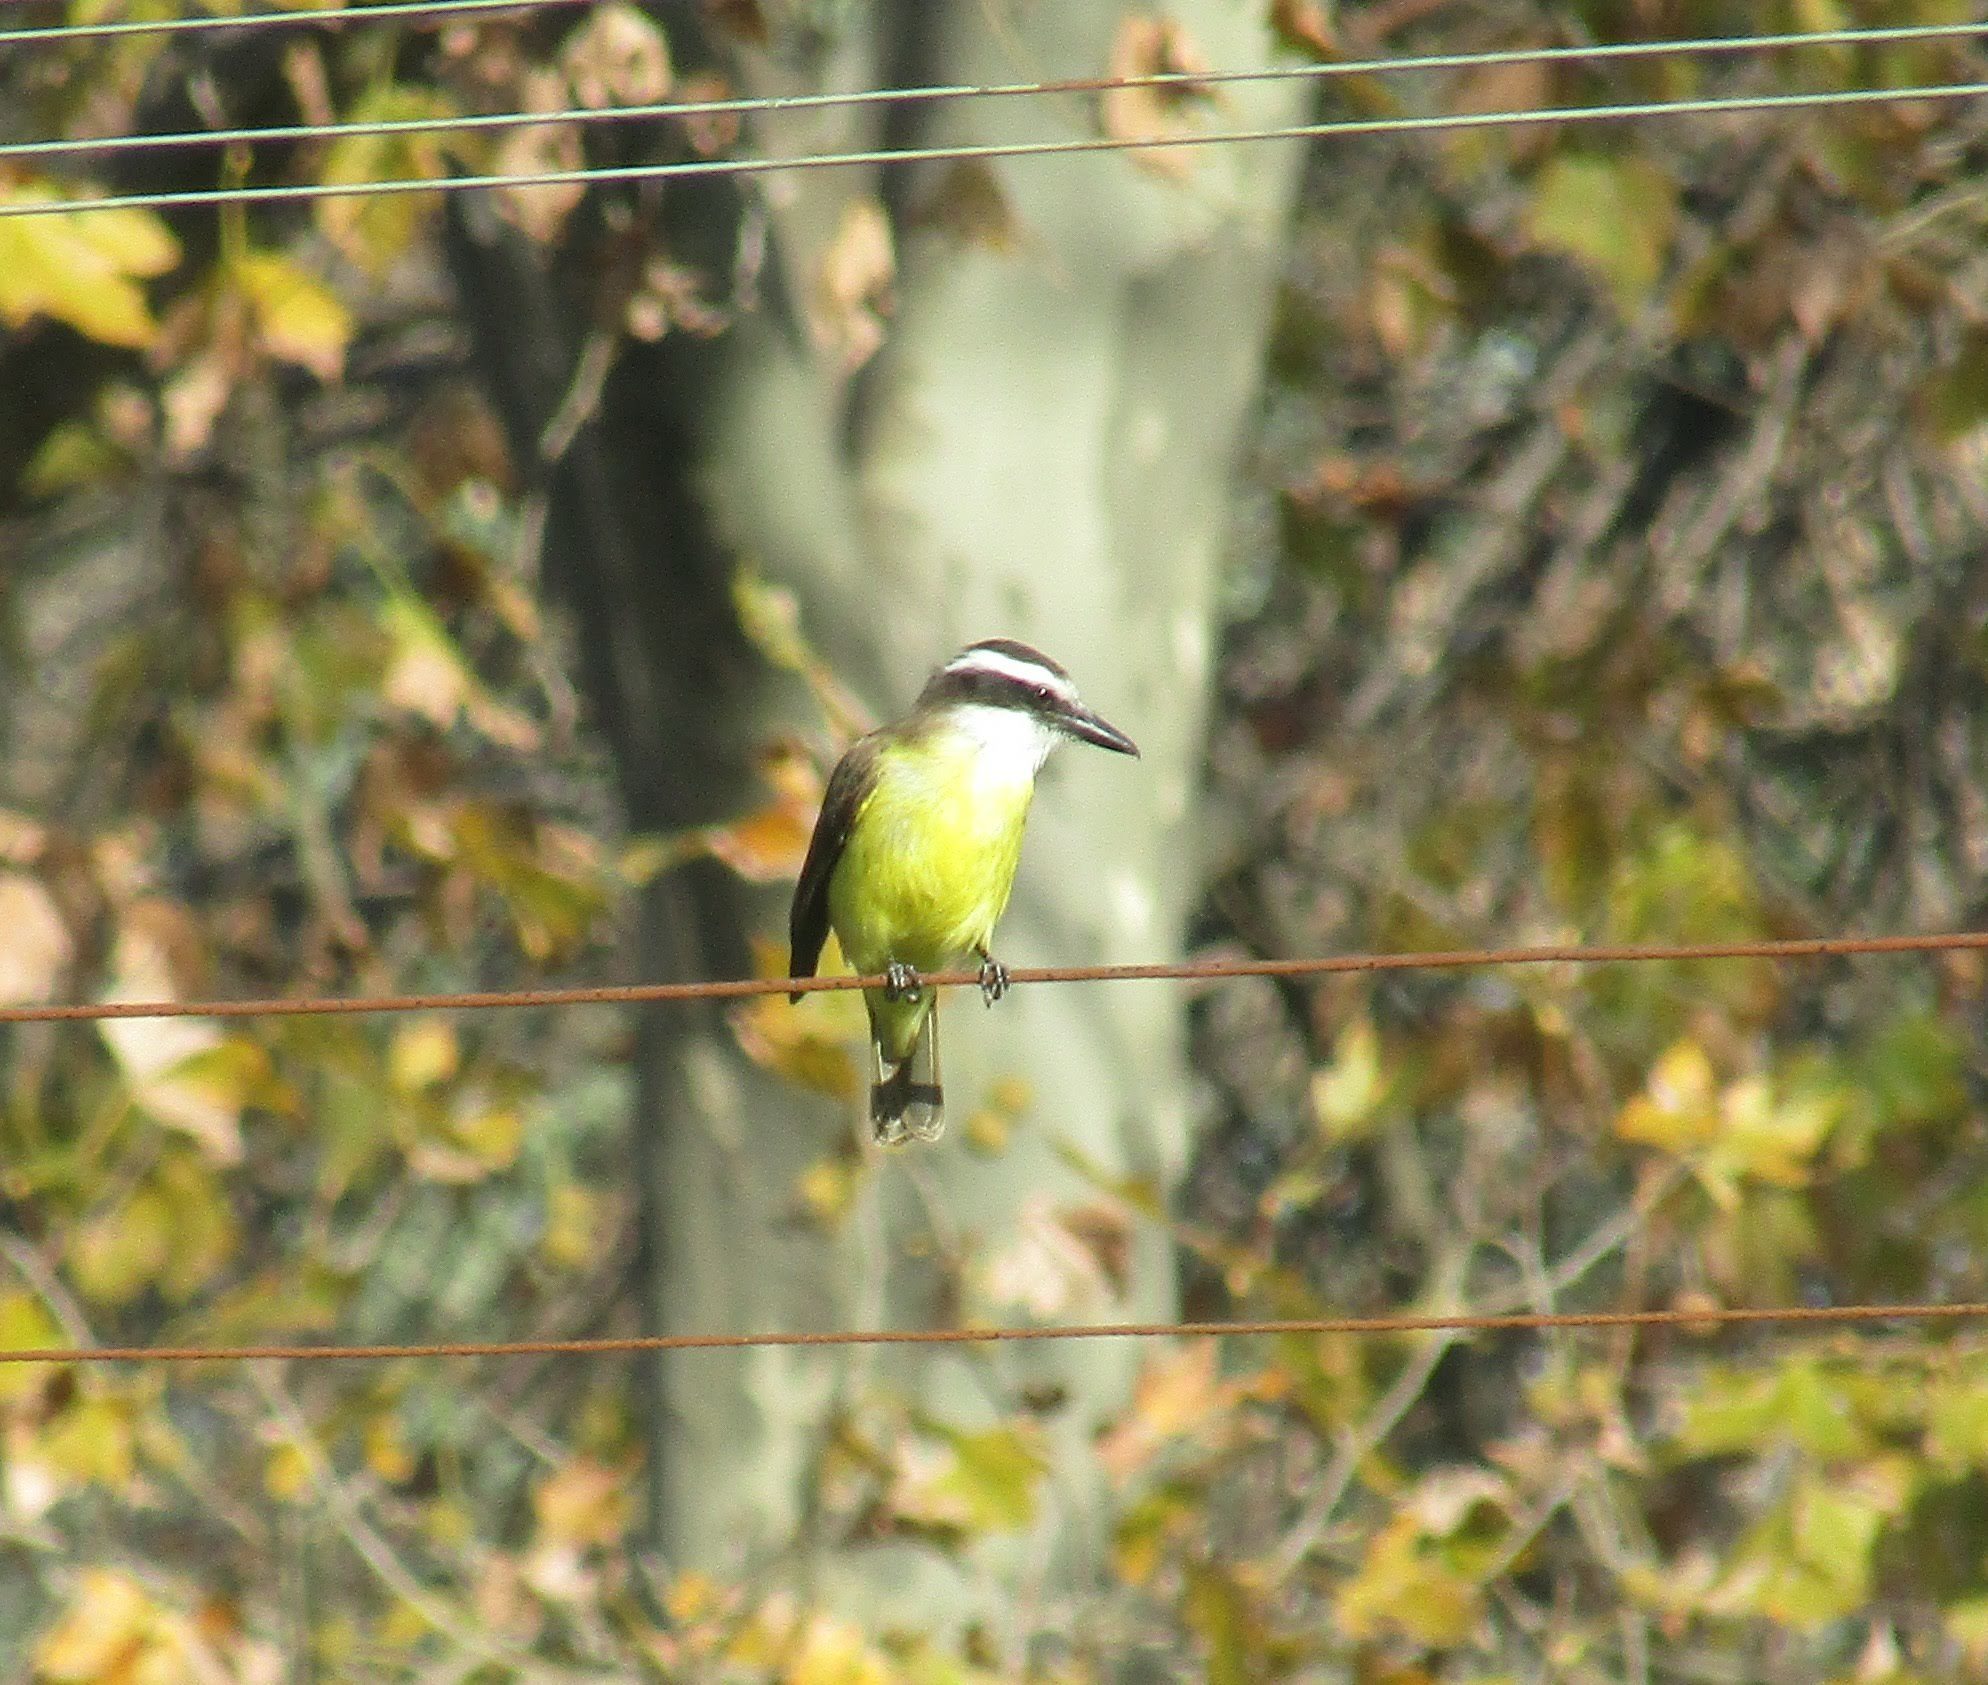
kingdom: Animalia
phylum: Chordata
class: Aves
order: Passeriformes
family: Tyrannidae
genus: Pitangus
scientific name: Pitangus sulphuratus
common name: Great kiskadee
